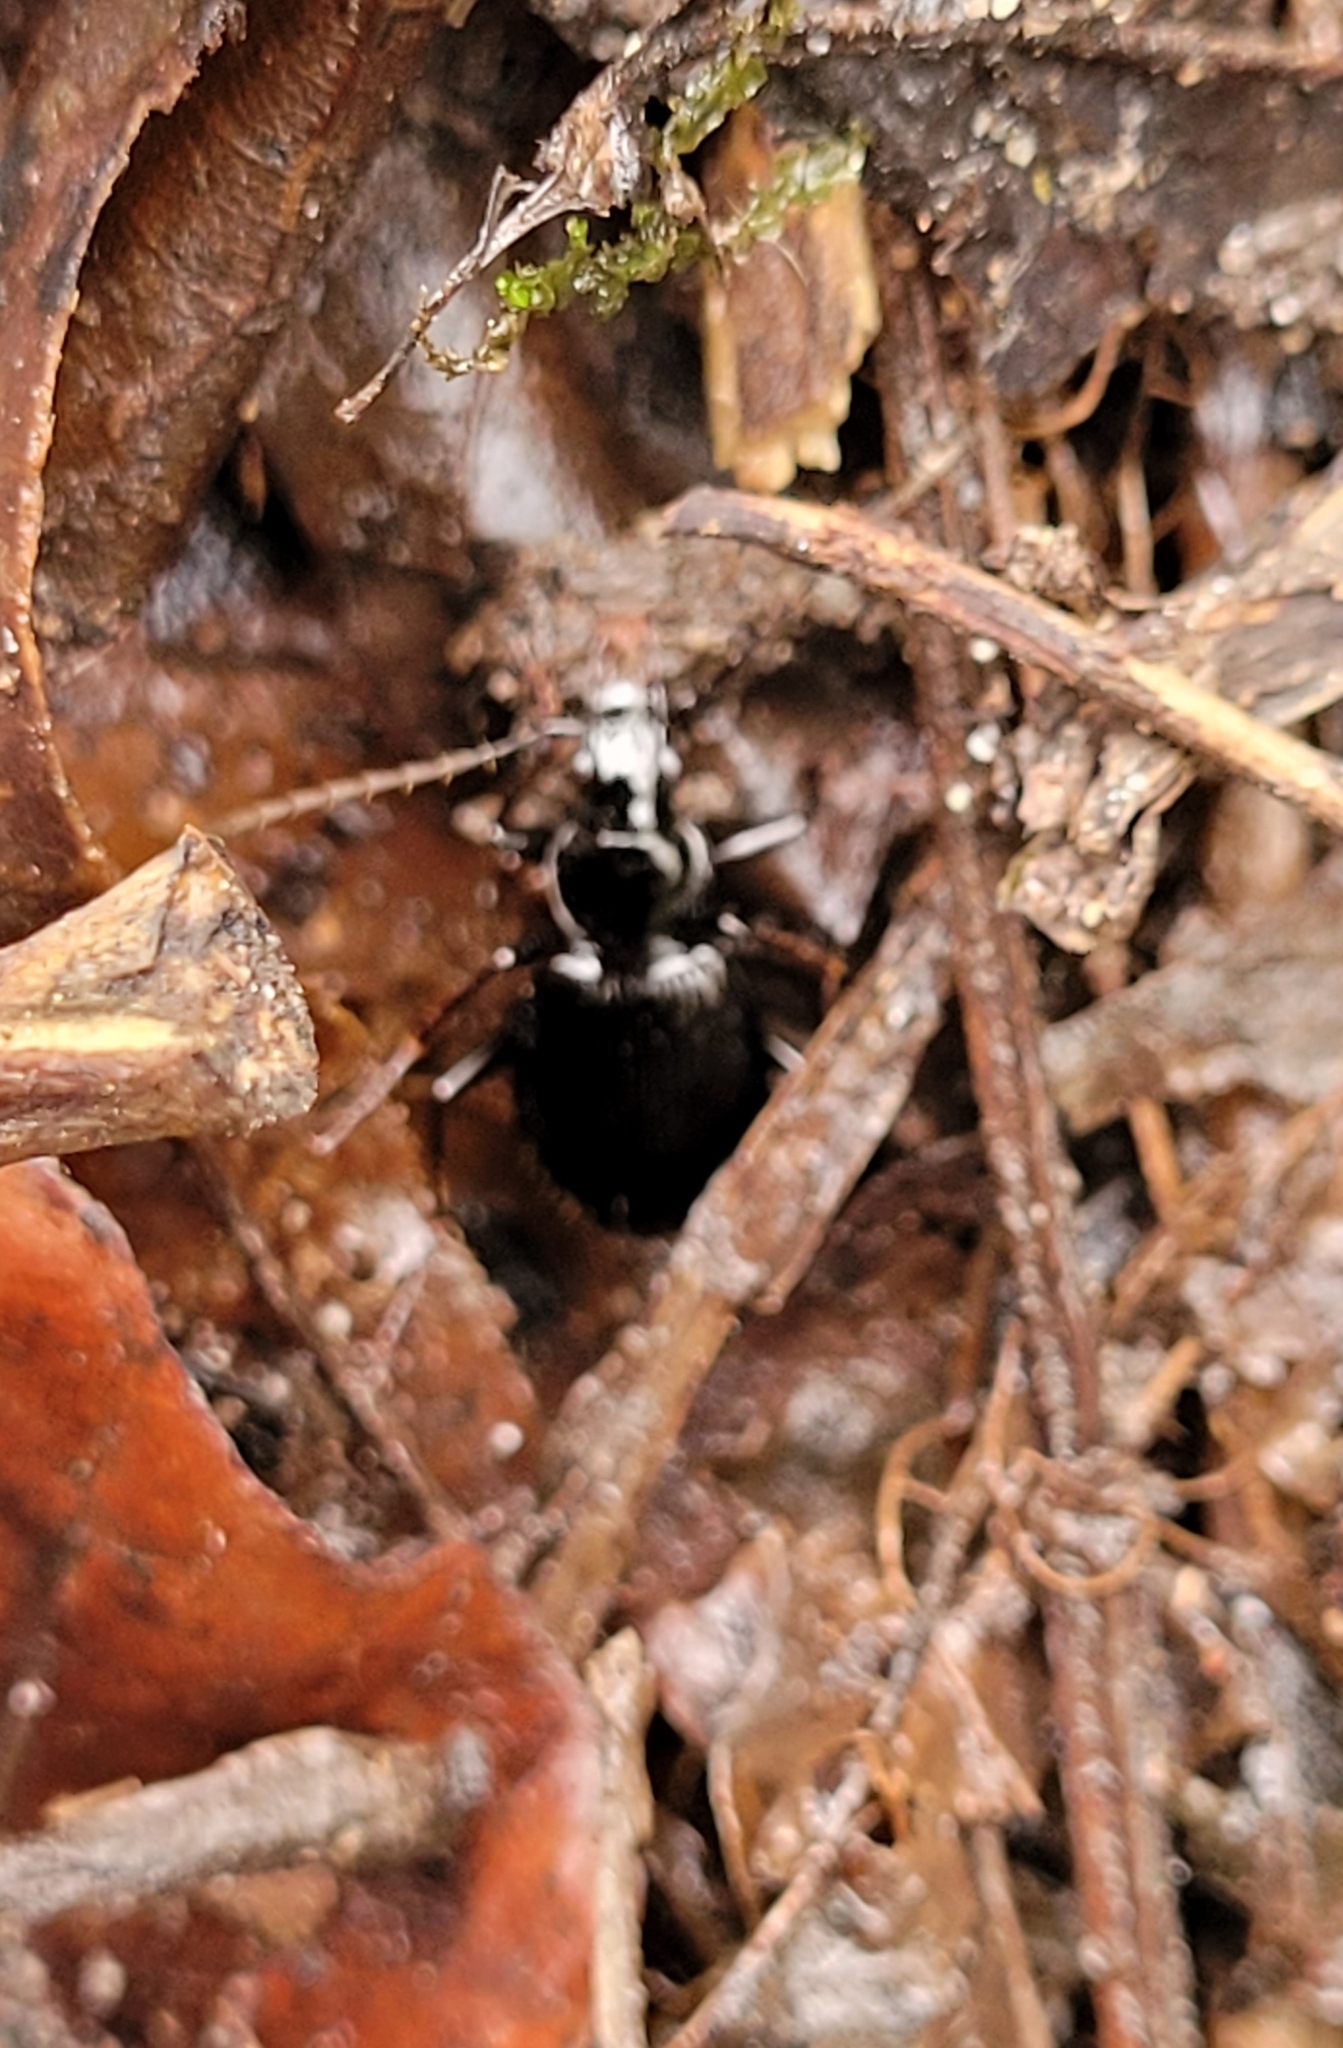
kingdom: Animalia
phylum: Arthropoda
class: Insecta
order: Coleoptera
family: Carabidae
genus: Platynus
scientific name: Platynus assimilis
